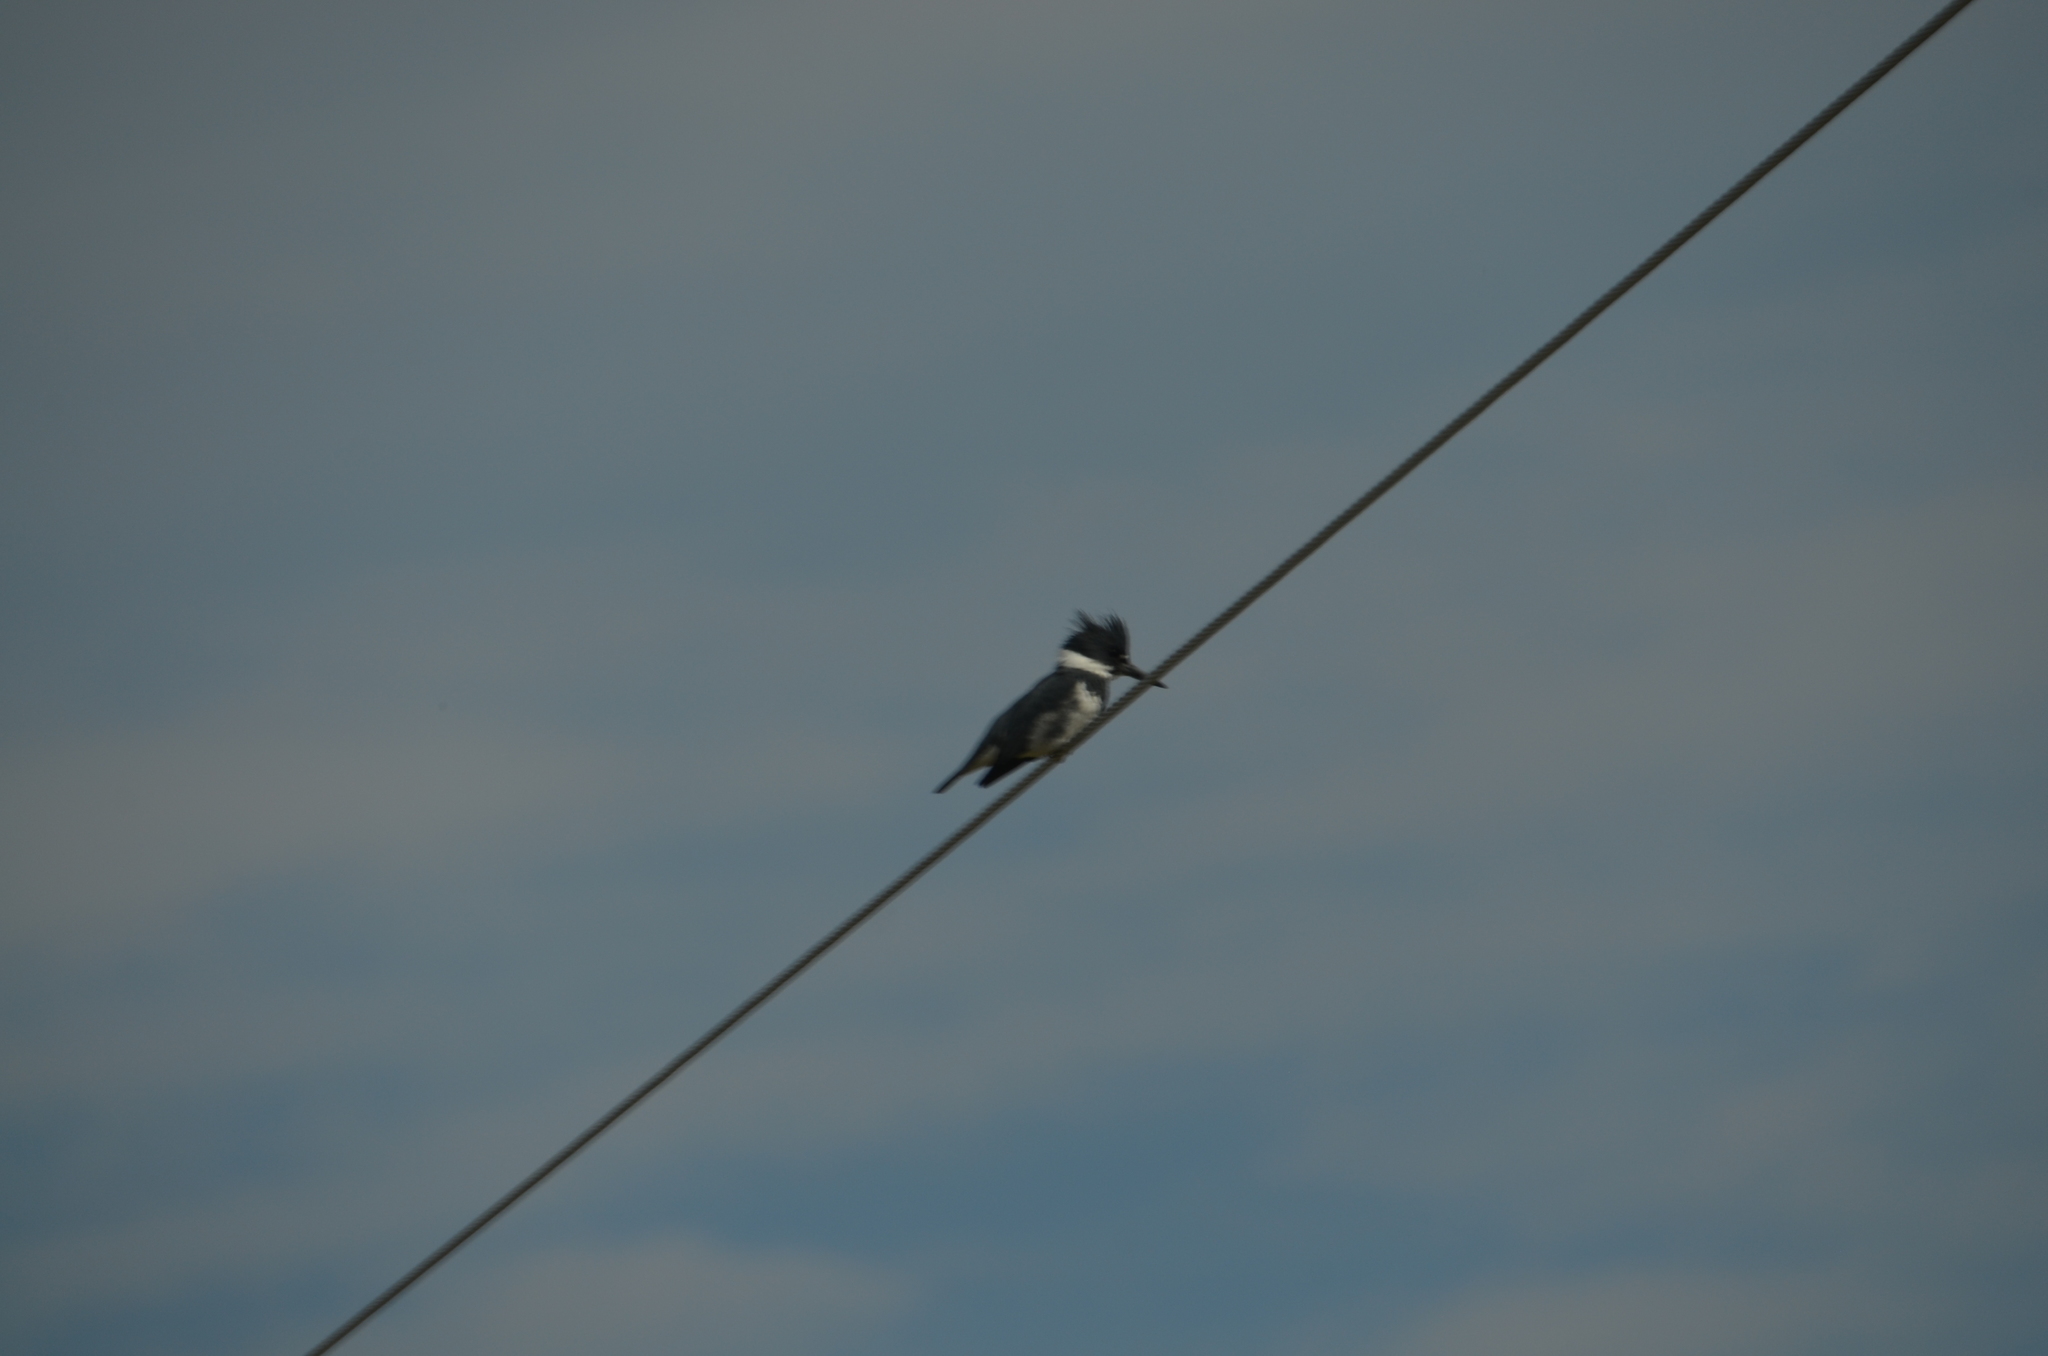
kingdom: Animalia
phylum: Chordata
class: Aves
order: Coraciiformes
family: Alcedinidae
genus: Megaceryle
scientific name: Megaceryle alcyon
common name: Belted kingfisher
